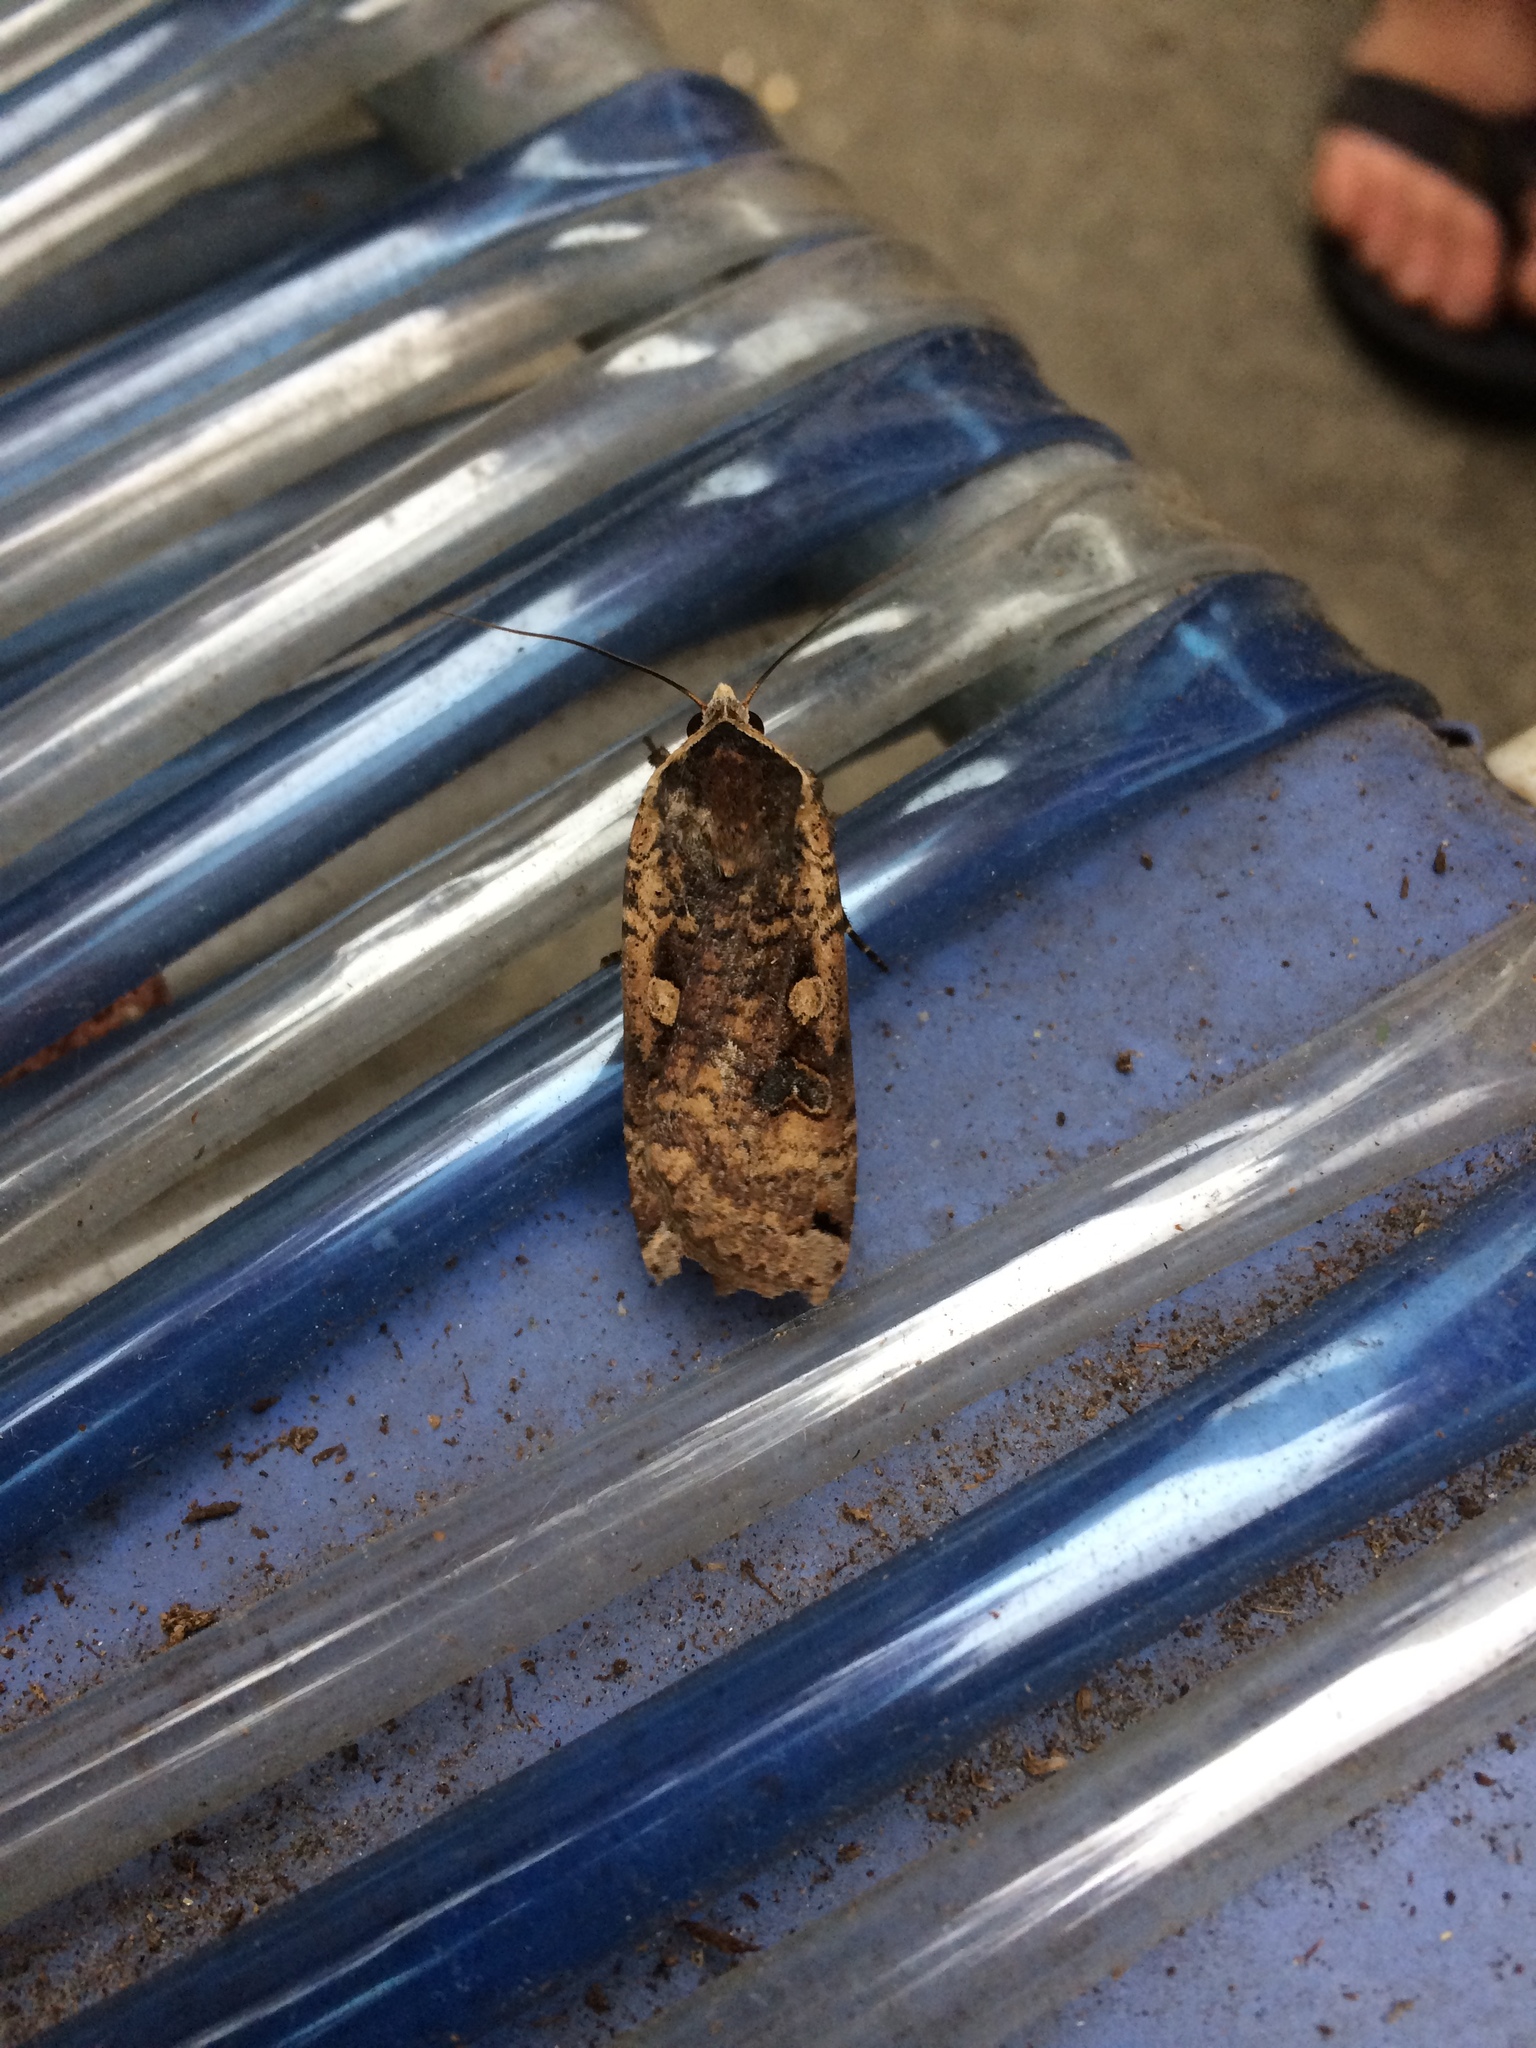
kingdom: Animalia
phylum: Arthropoda
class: Insecta
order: Lepidoptera
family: Noctuidae
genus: Noctua
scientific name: Noctua pronuba
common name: Large yellow underwing
